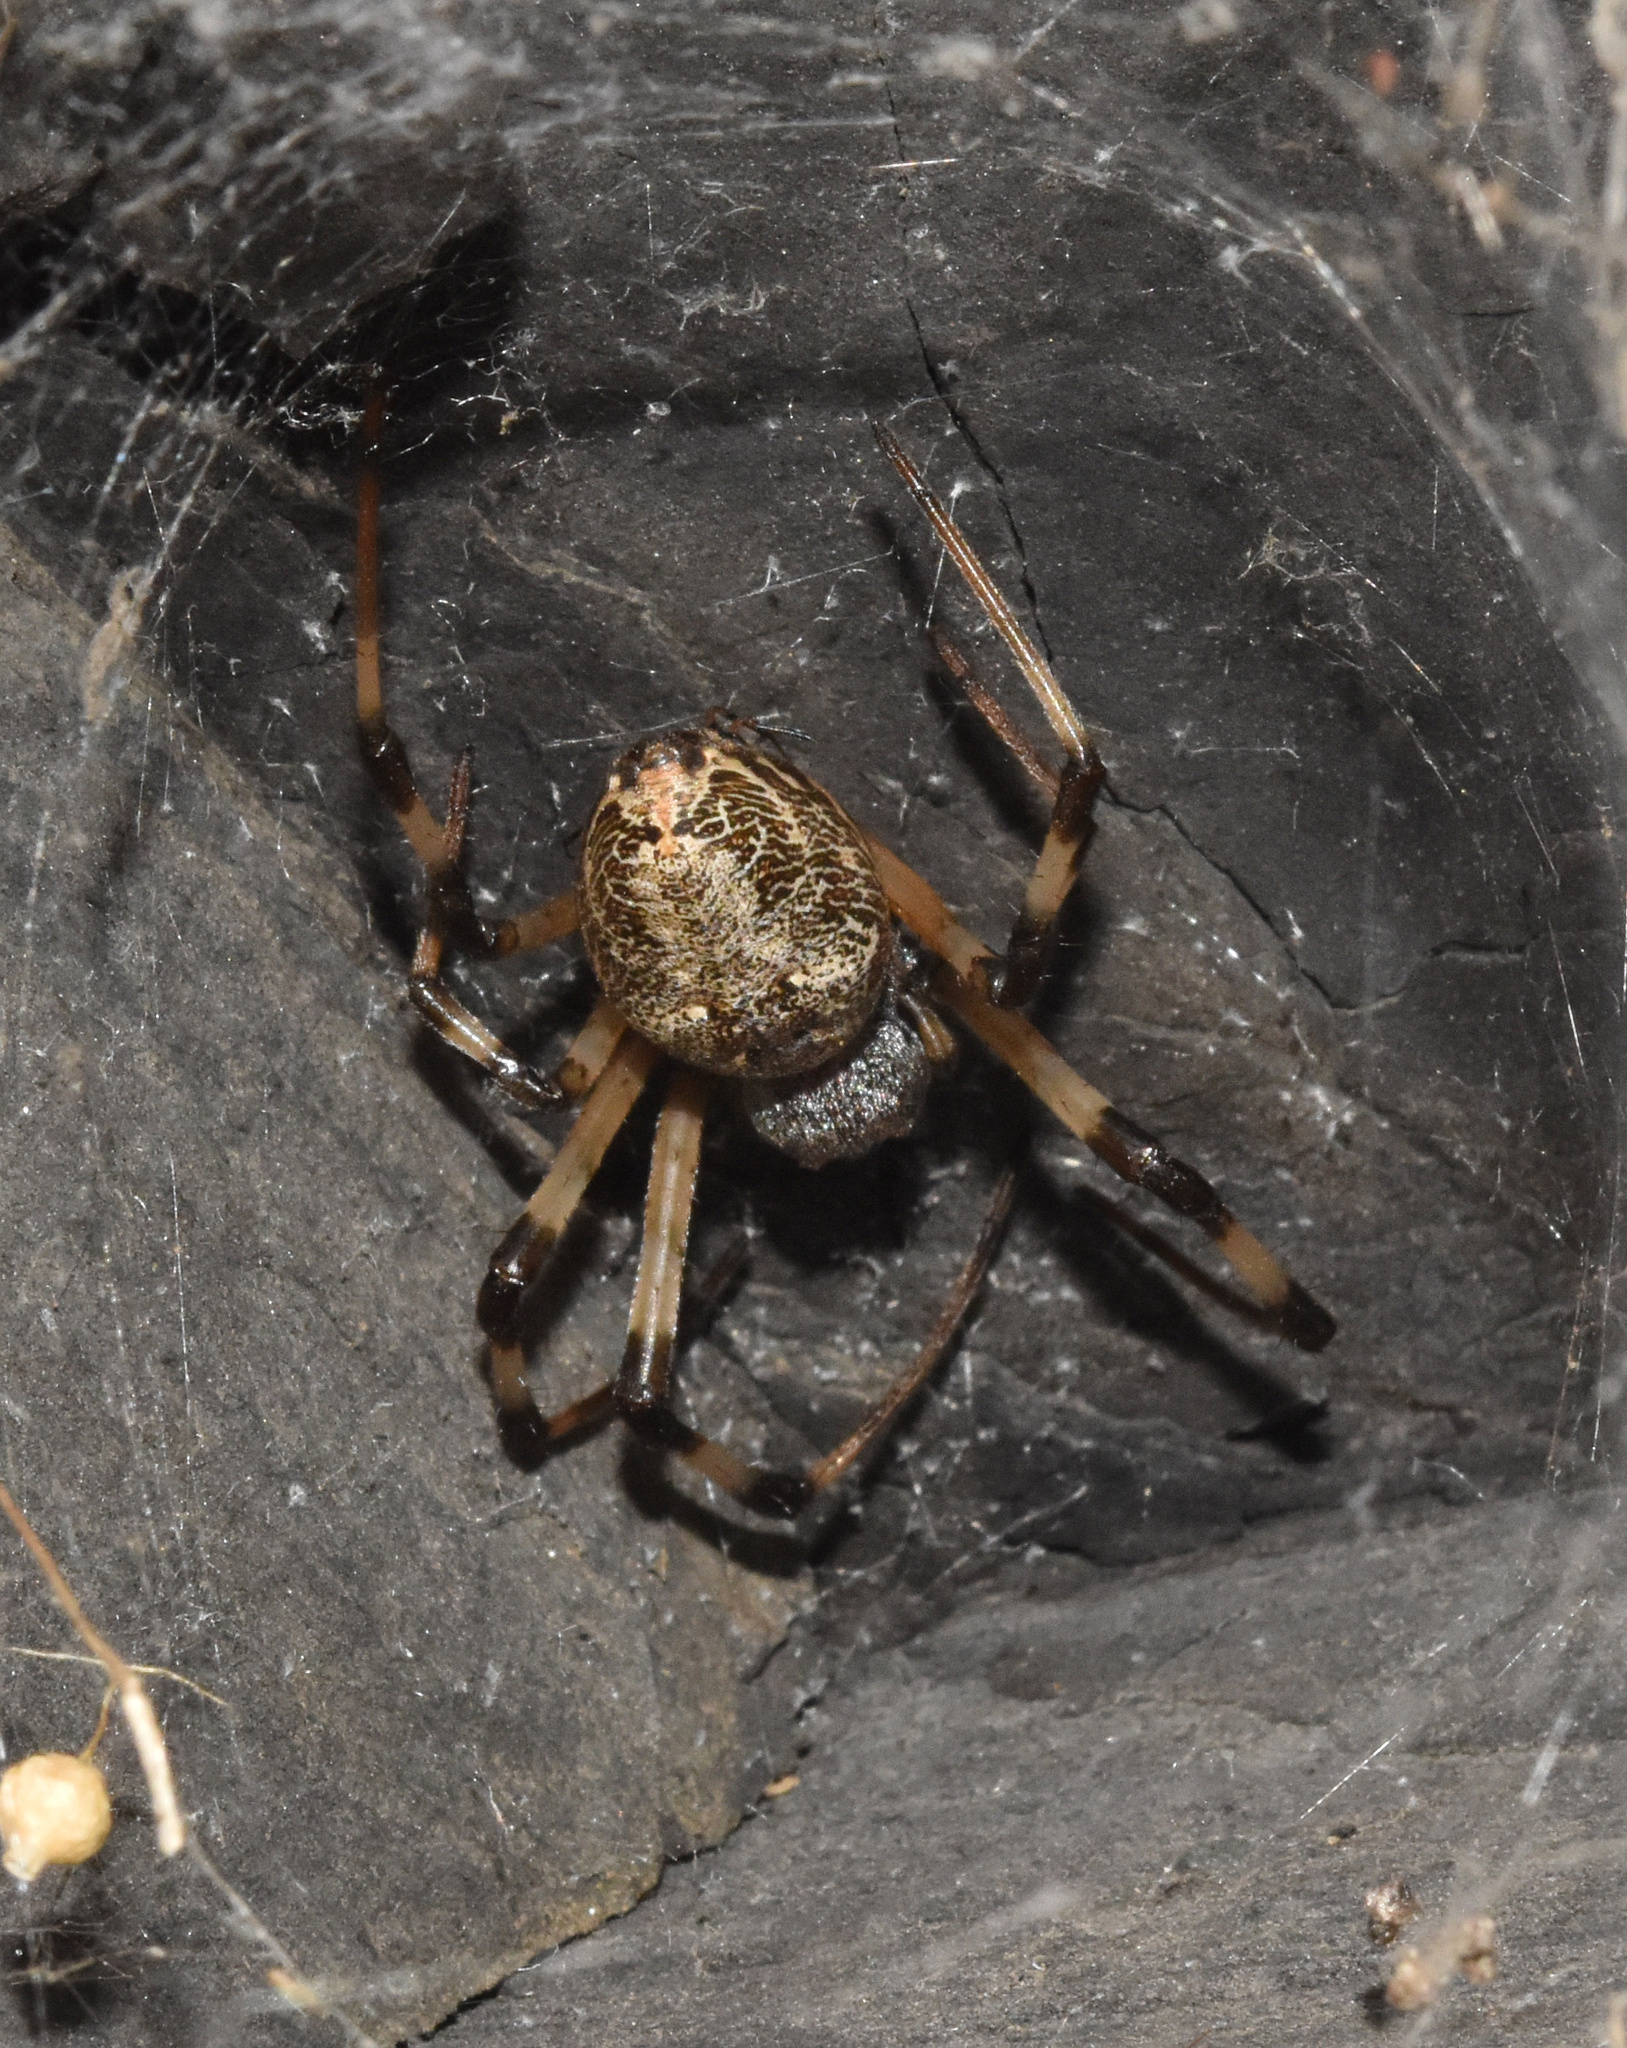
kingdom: Animalia
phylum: Arthropoda
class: Arachnida
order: Araneae
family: Araneidae
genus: Nephilingis
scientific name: Nephilingis cruentata
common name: African hermit spider
